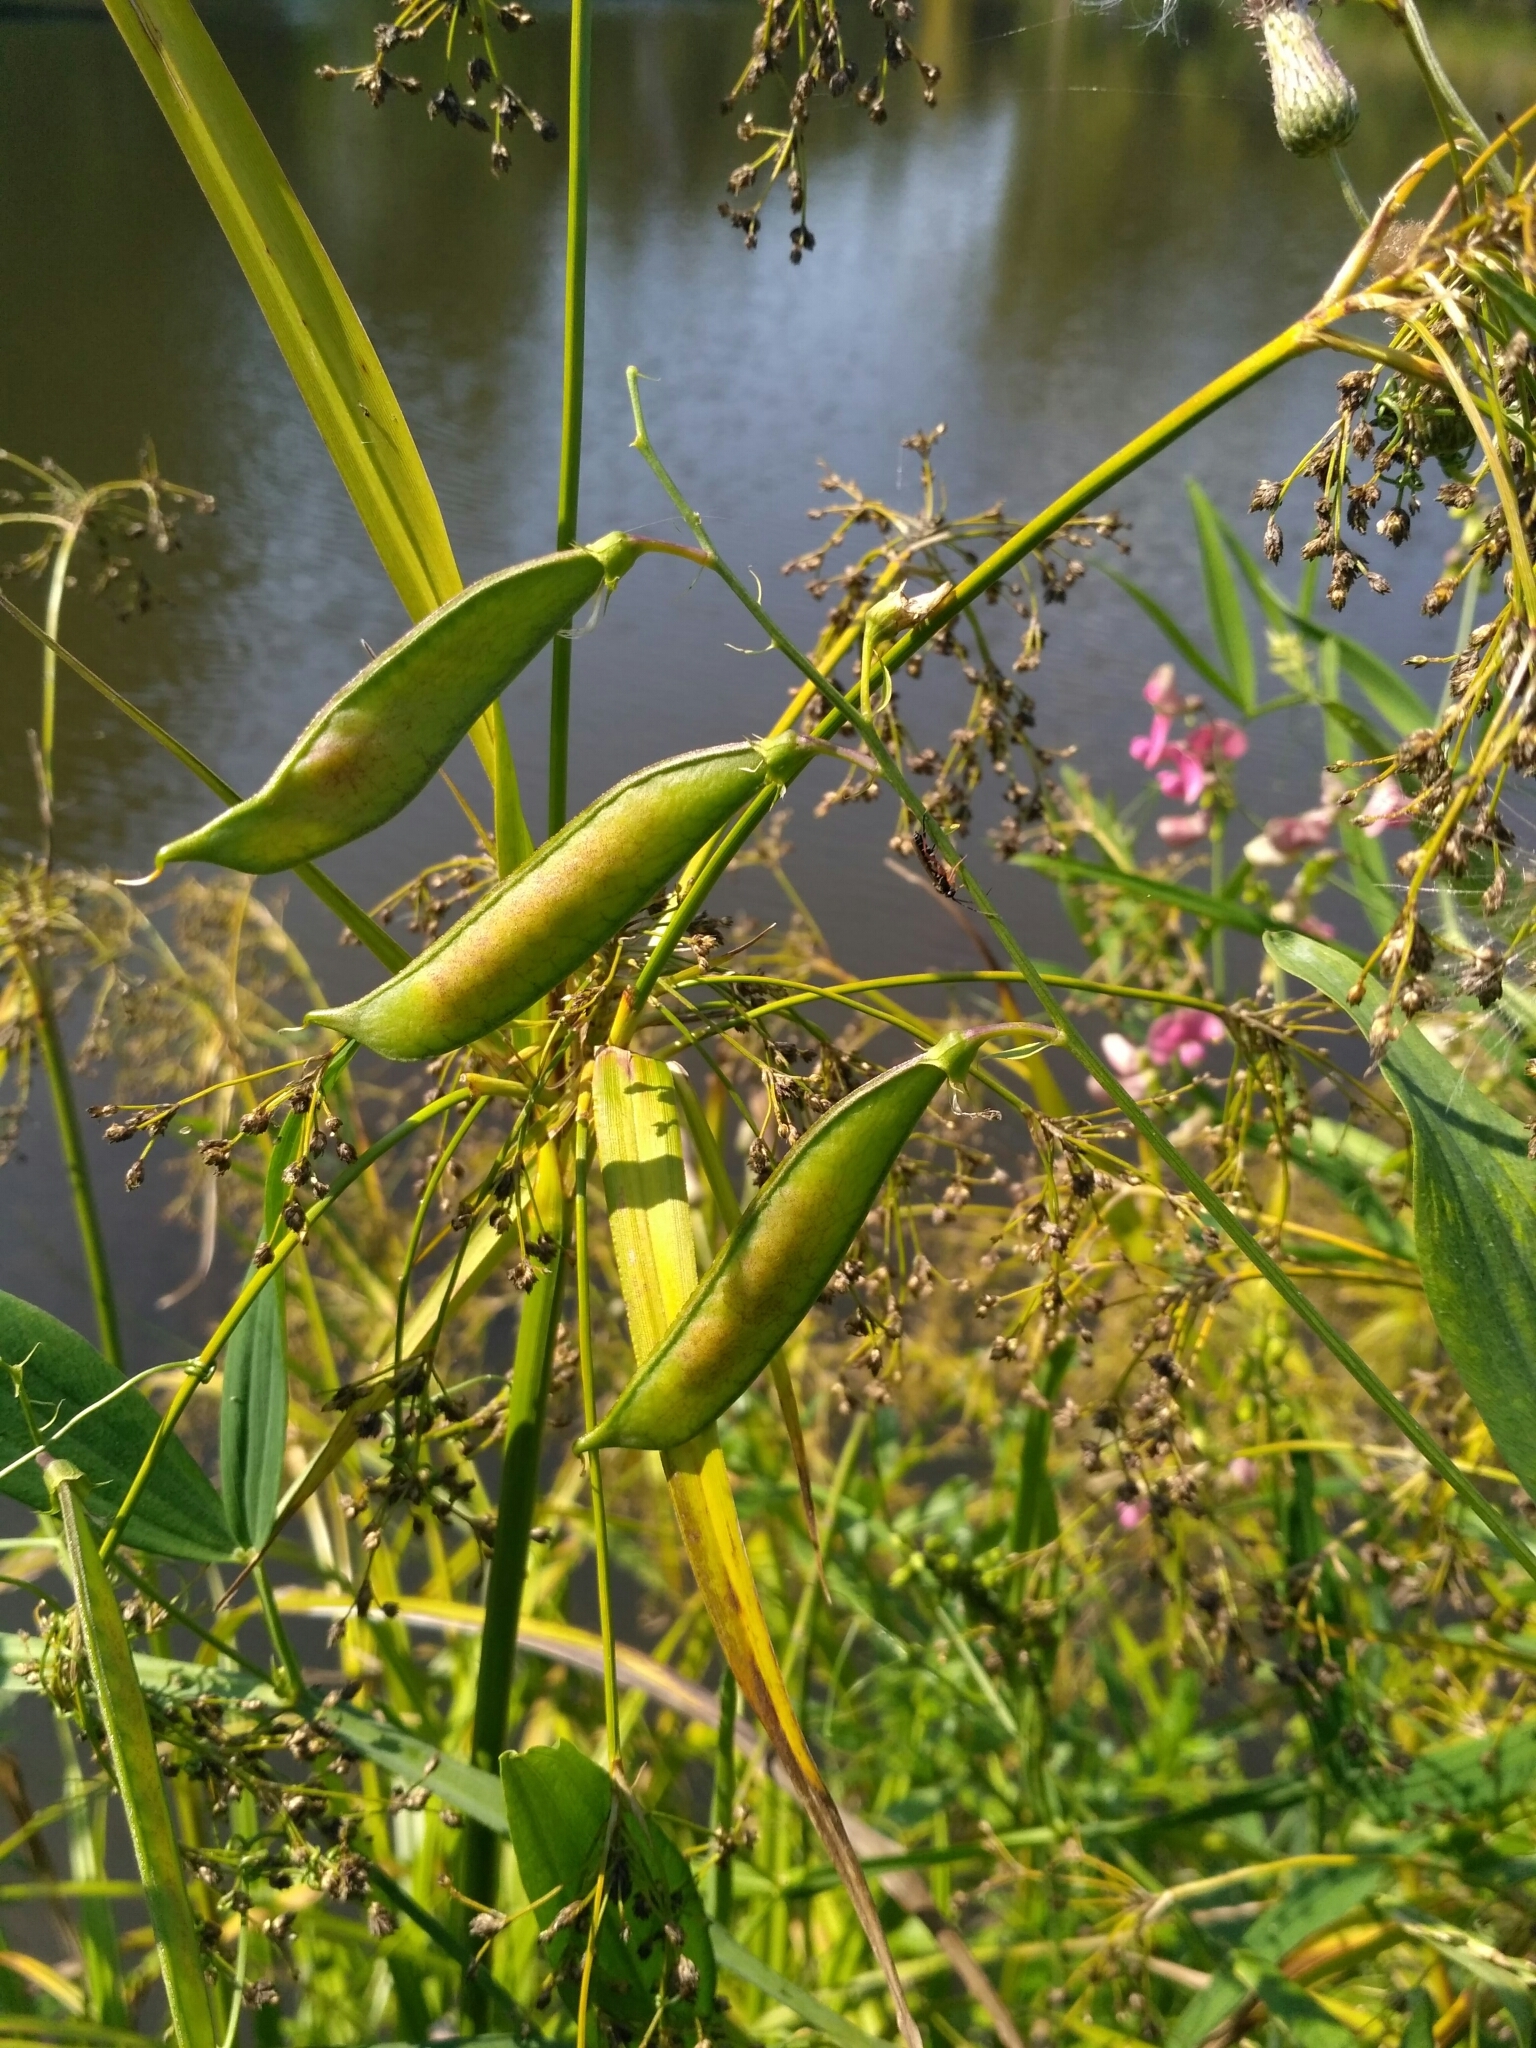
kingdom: Plantae
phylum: Tracheophyta
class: Magnoliopsida
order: Fabales
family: Fabaceae
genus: Lathyrus
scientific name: Lathyrus sylvestris
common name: Flat pea
